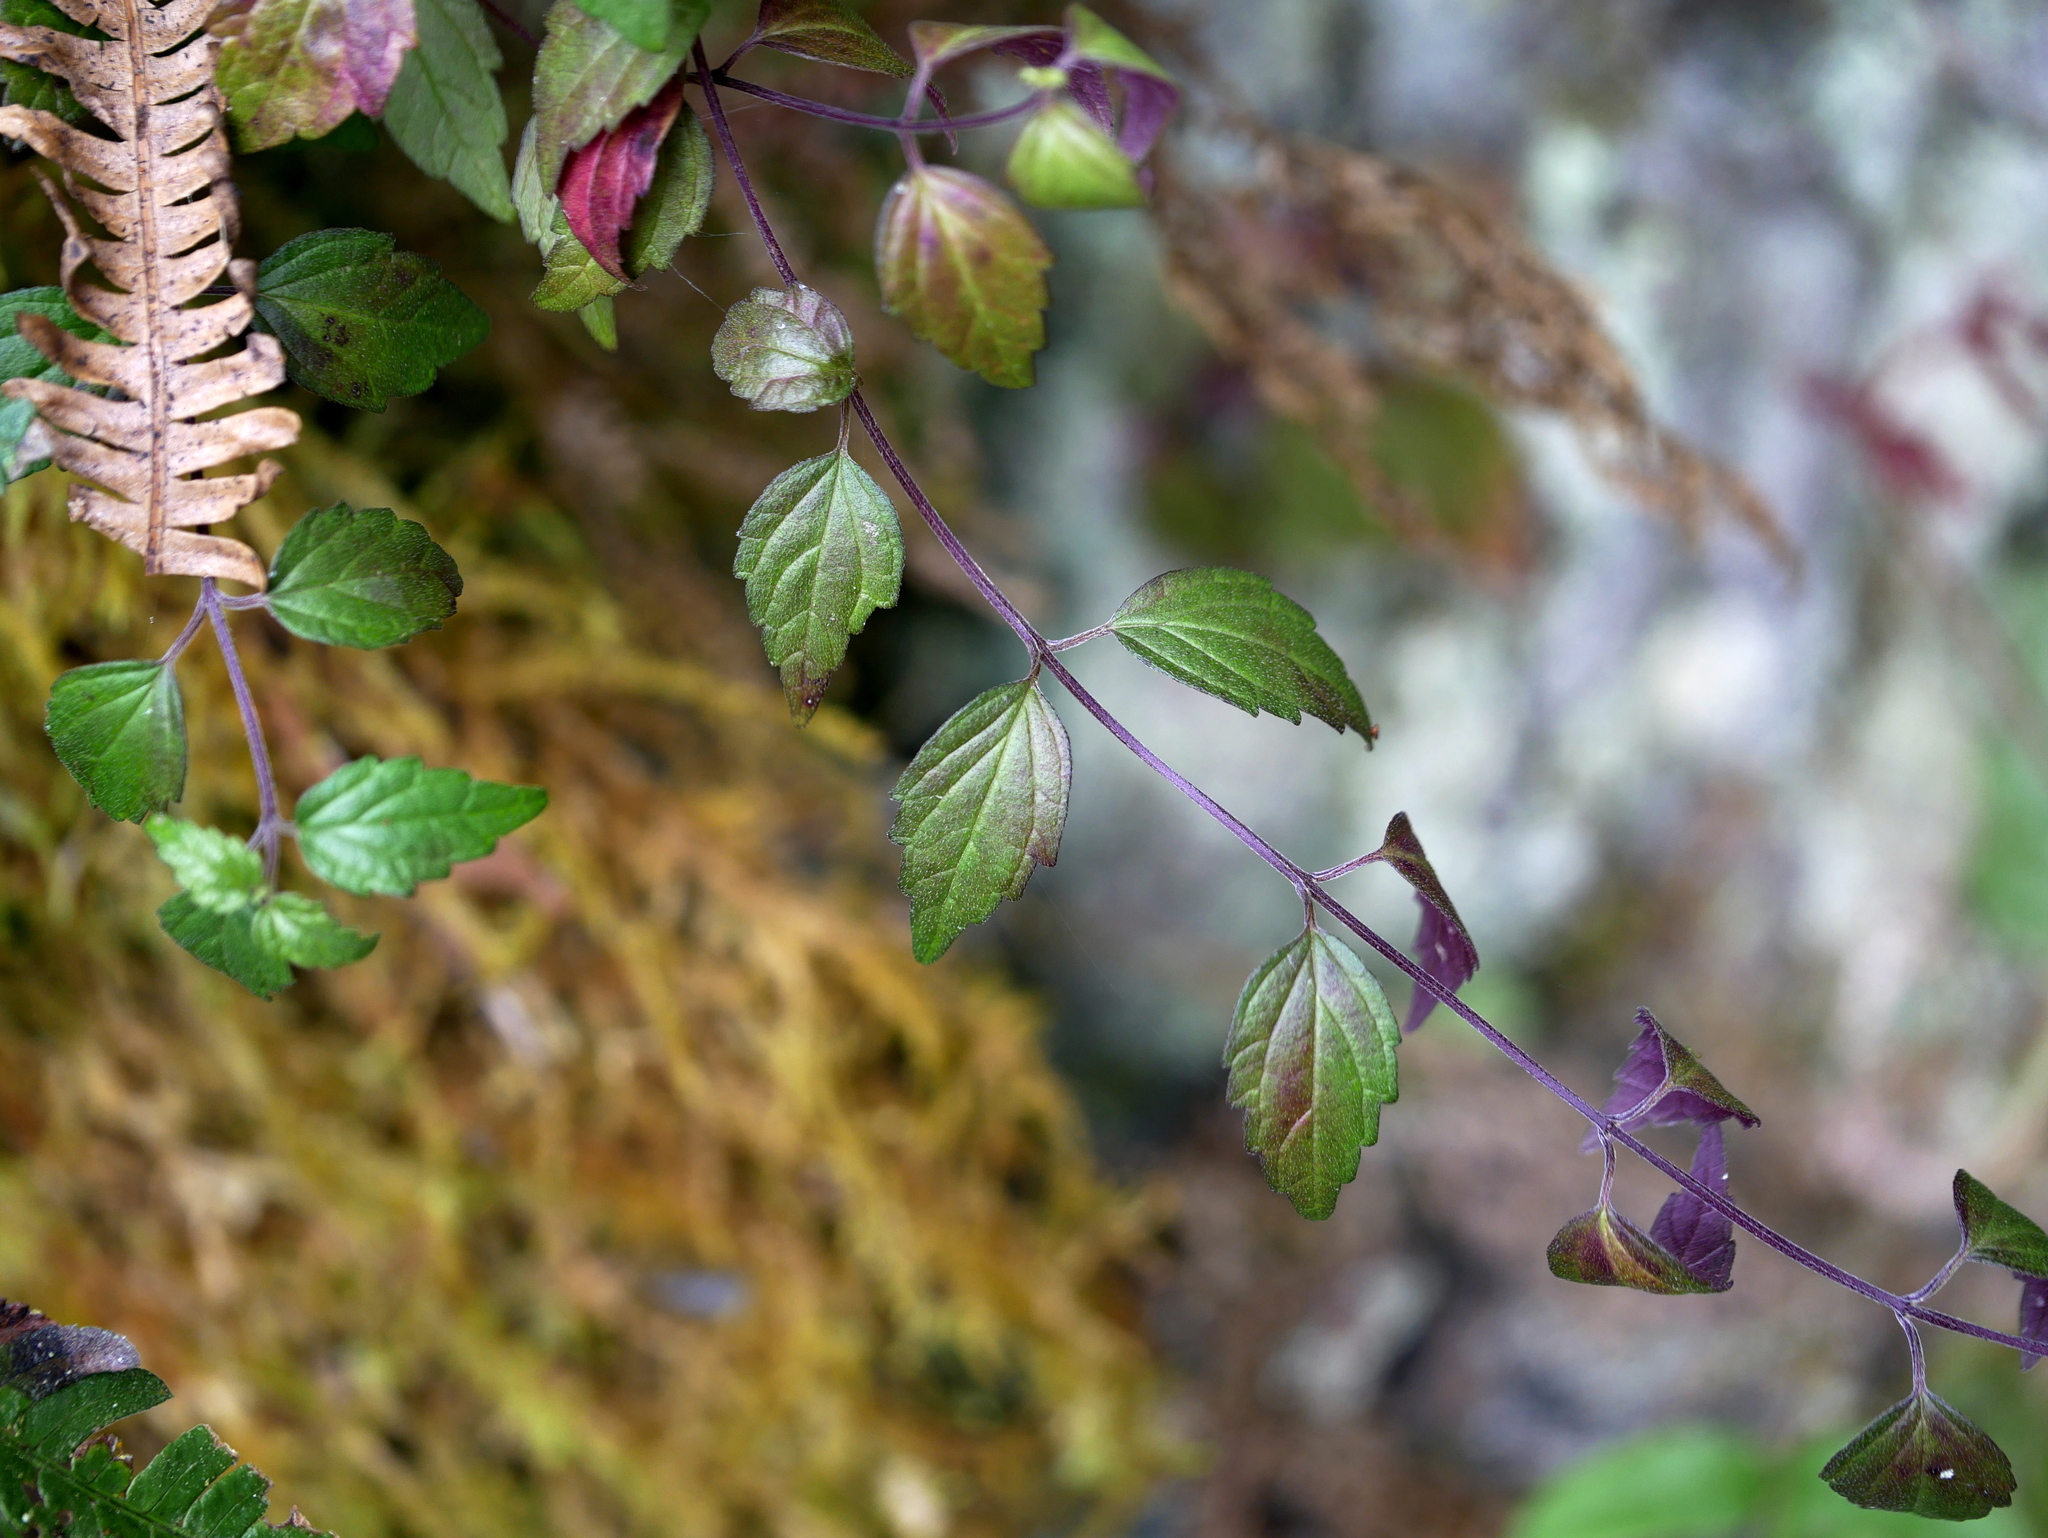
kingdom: Plantae
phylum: Tracheophyta
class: Magnoliopsida
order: Lamiales
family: Lamiaceae
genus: Scutellaria
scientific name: Scutellaria hsiehii
